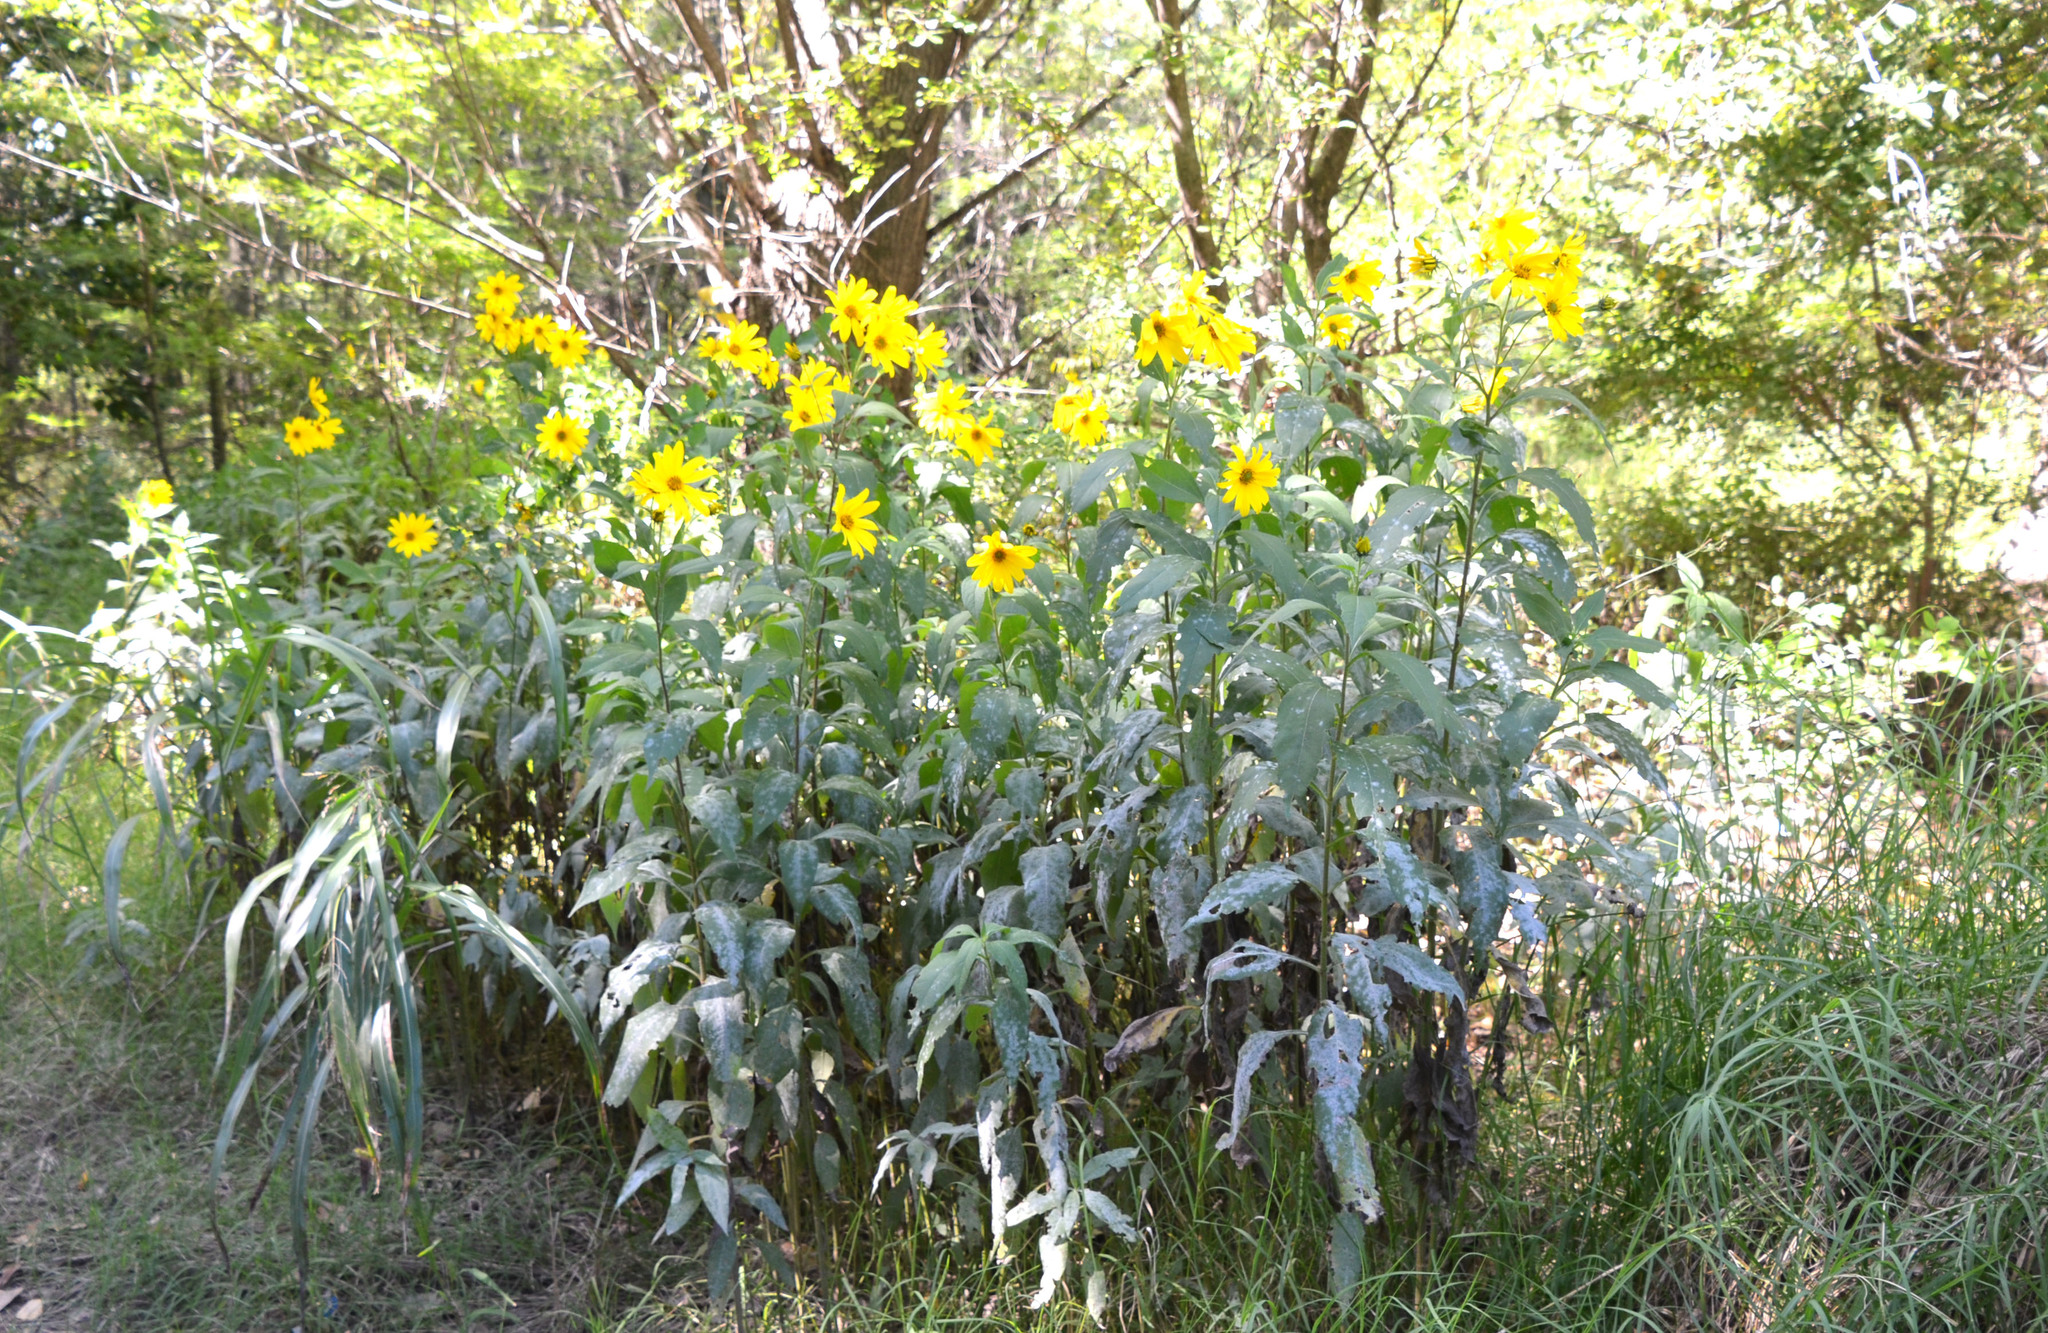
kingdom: Plantae
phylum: Tracheophyta
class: Magnoliopsida
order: Asterales
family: Asteraceae
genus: Helianthus
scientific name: Helianthus tuberosus
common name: Jerusalem artichoke
